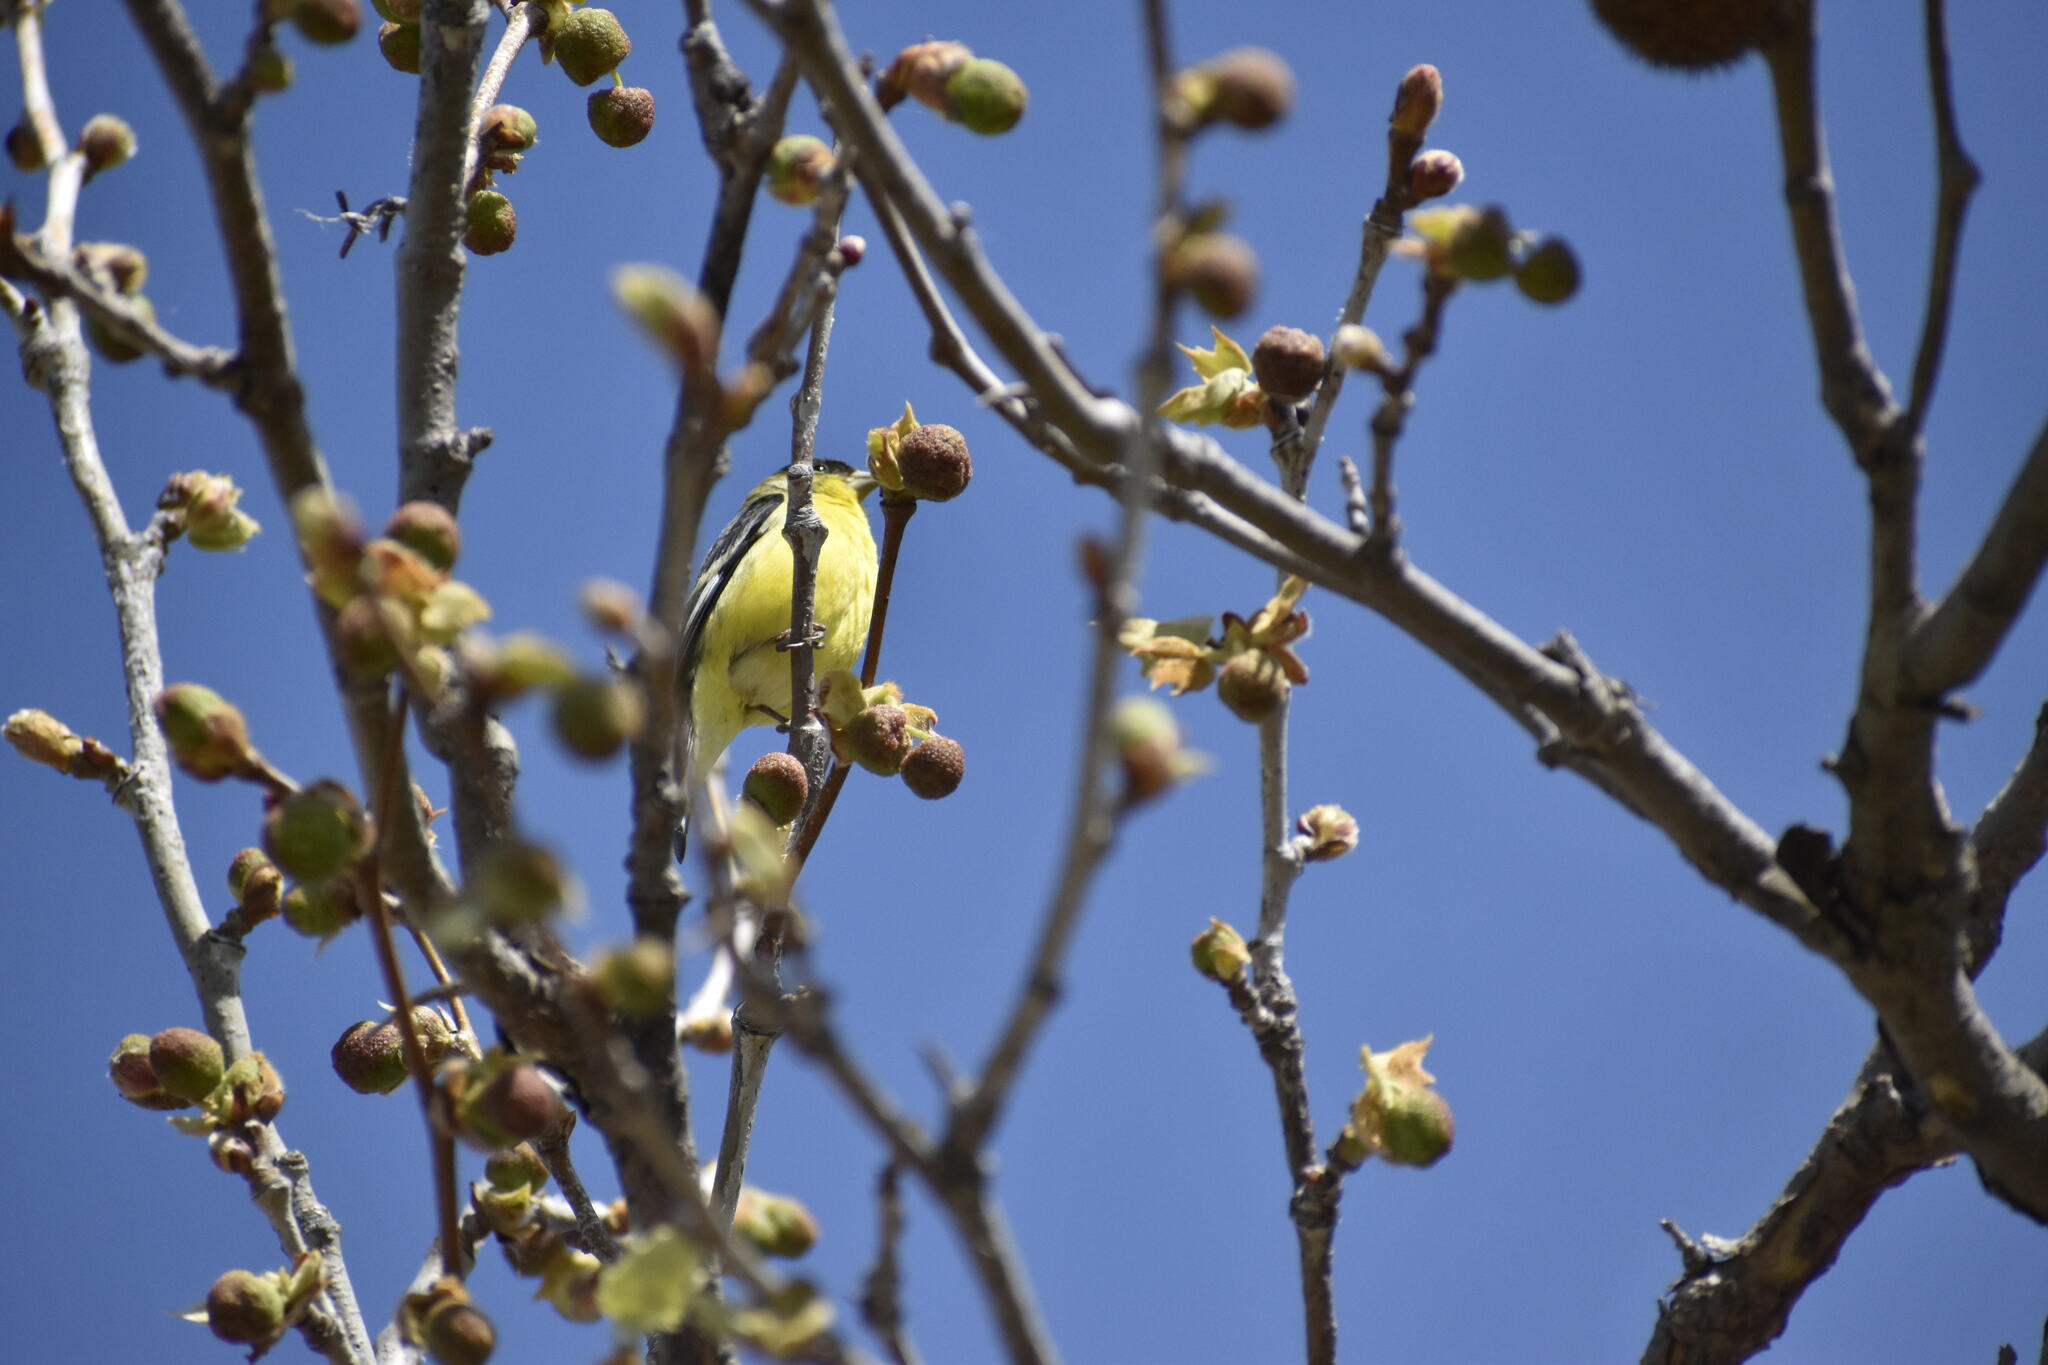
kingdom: Animalia
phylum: Chordata
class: Aves
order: Passeriformes
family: Fringillidae
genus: Spinus
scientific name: Spinus psaltria
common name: Lesser goldfinch
